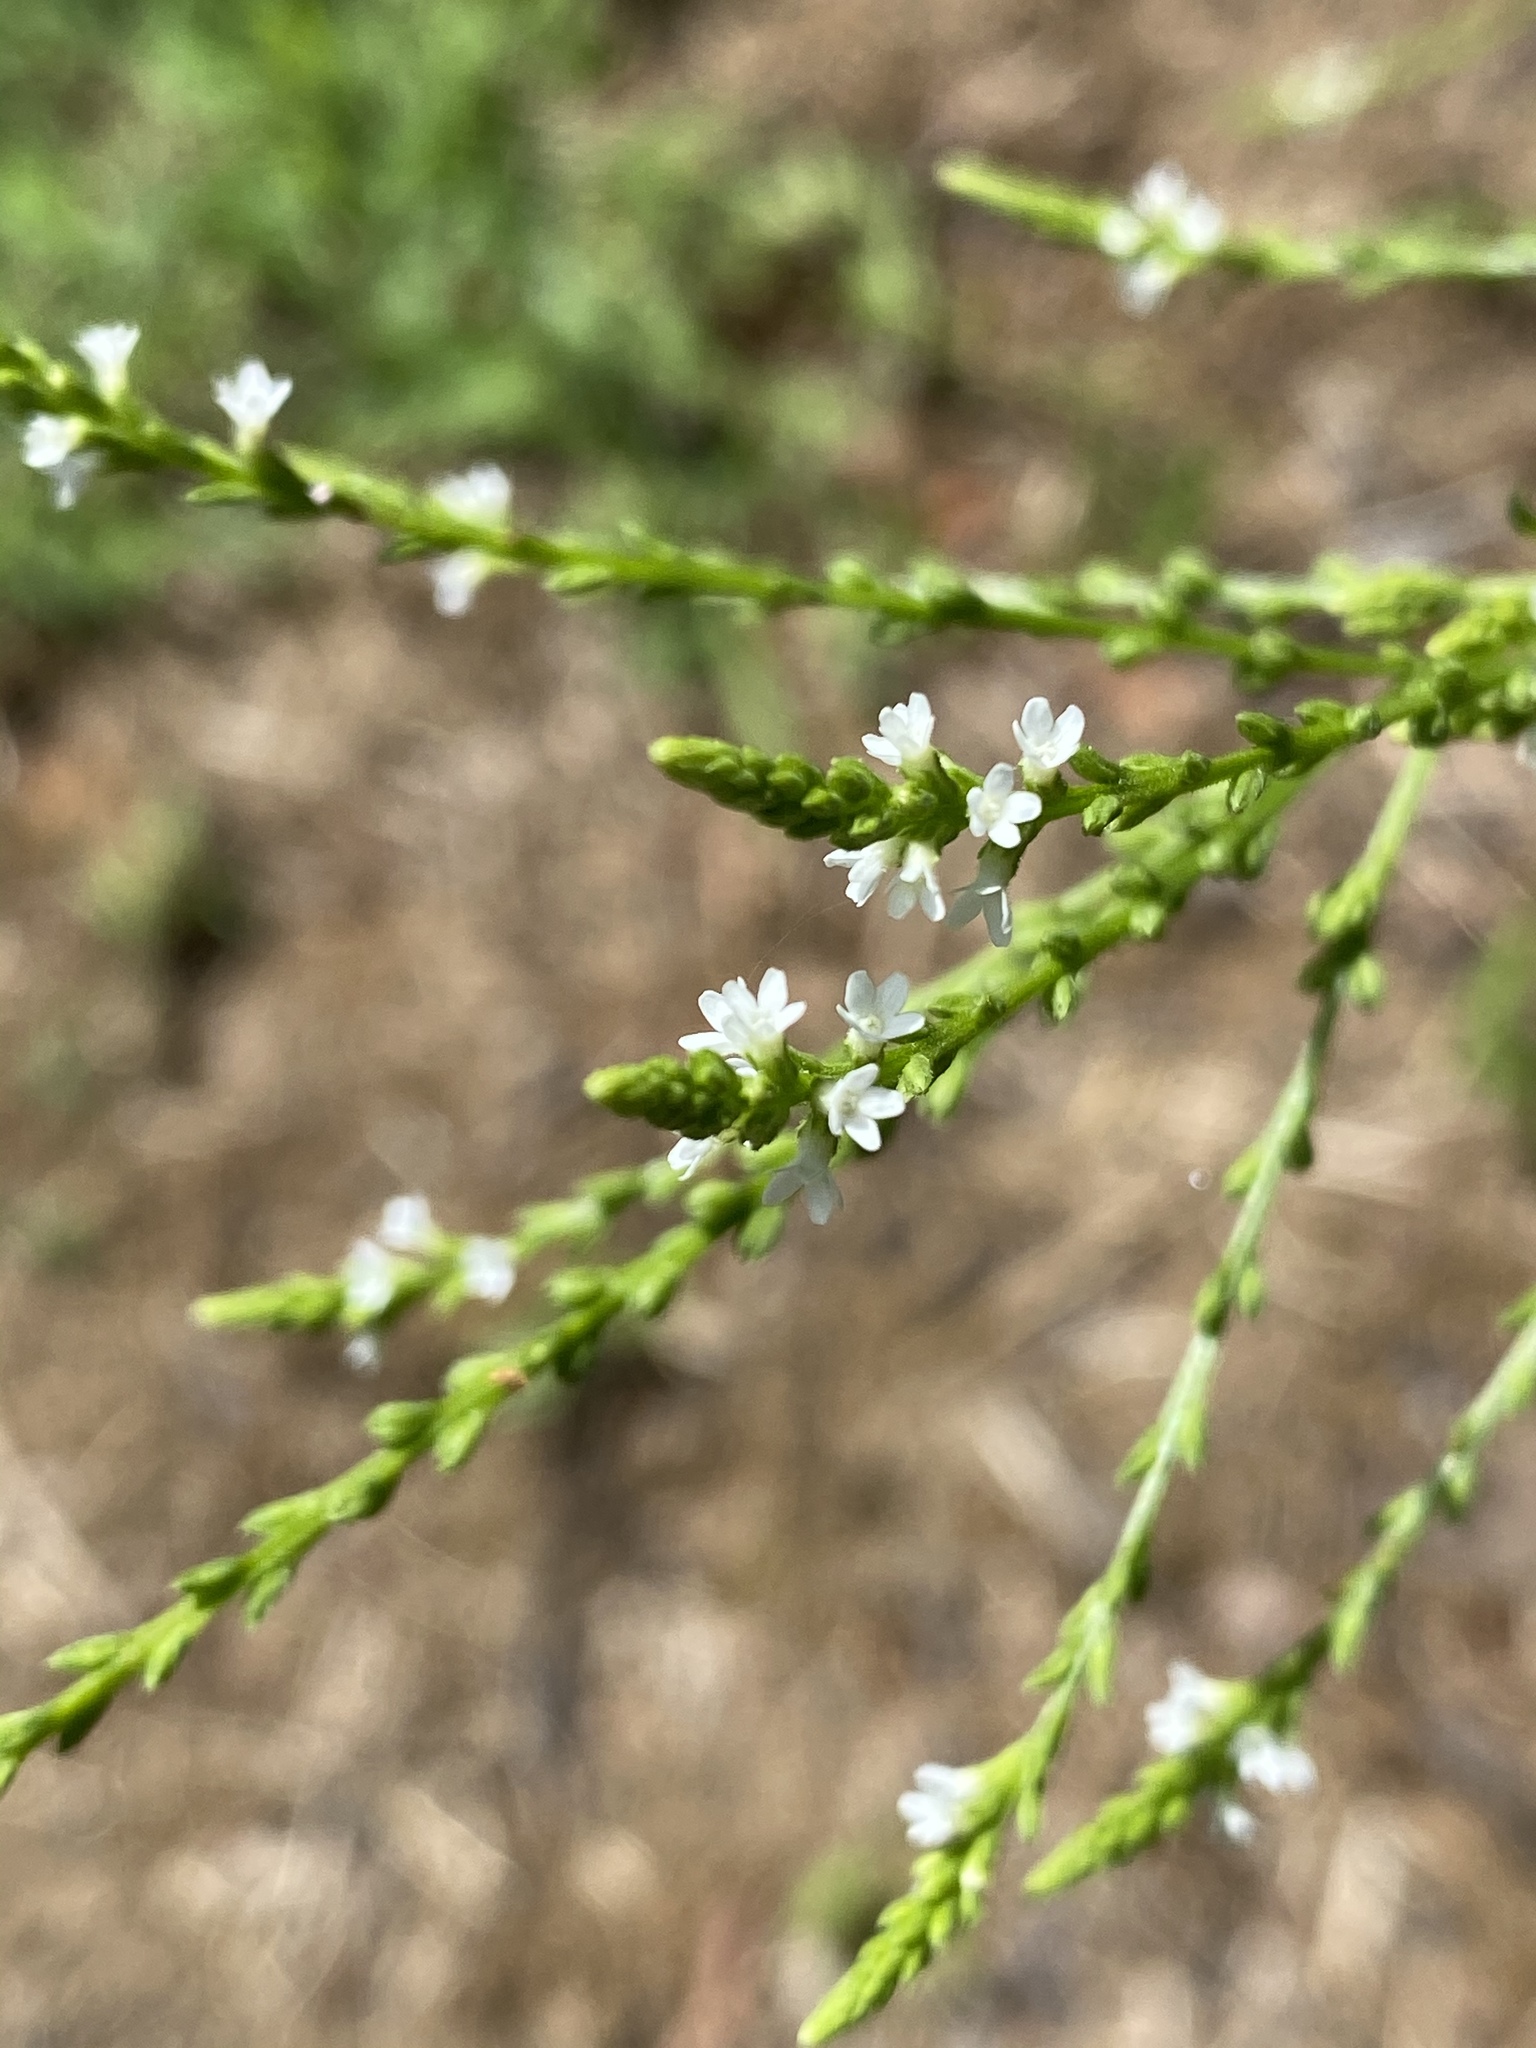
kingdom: Plantae
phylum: Tracheophyta
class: Magnoliopsida
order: Lamiales
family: Verbenaceae
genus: Verbena
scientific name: Verbena urticifolia
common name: Nettle-leaved vervain
